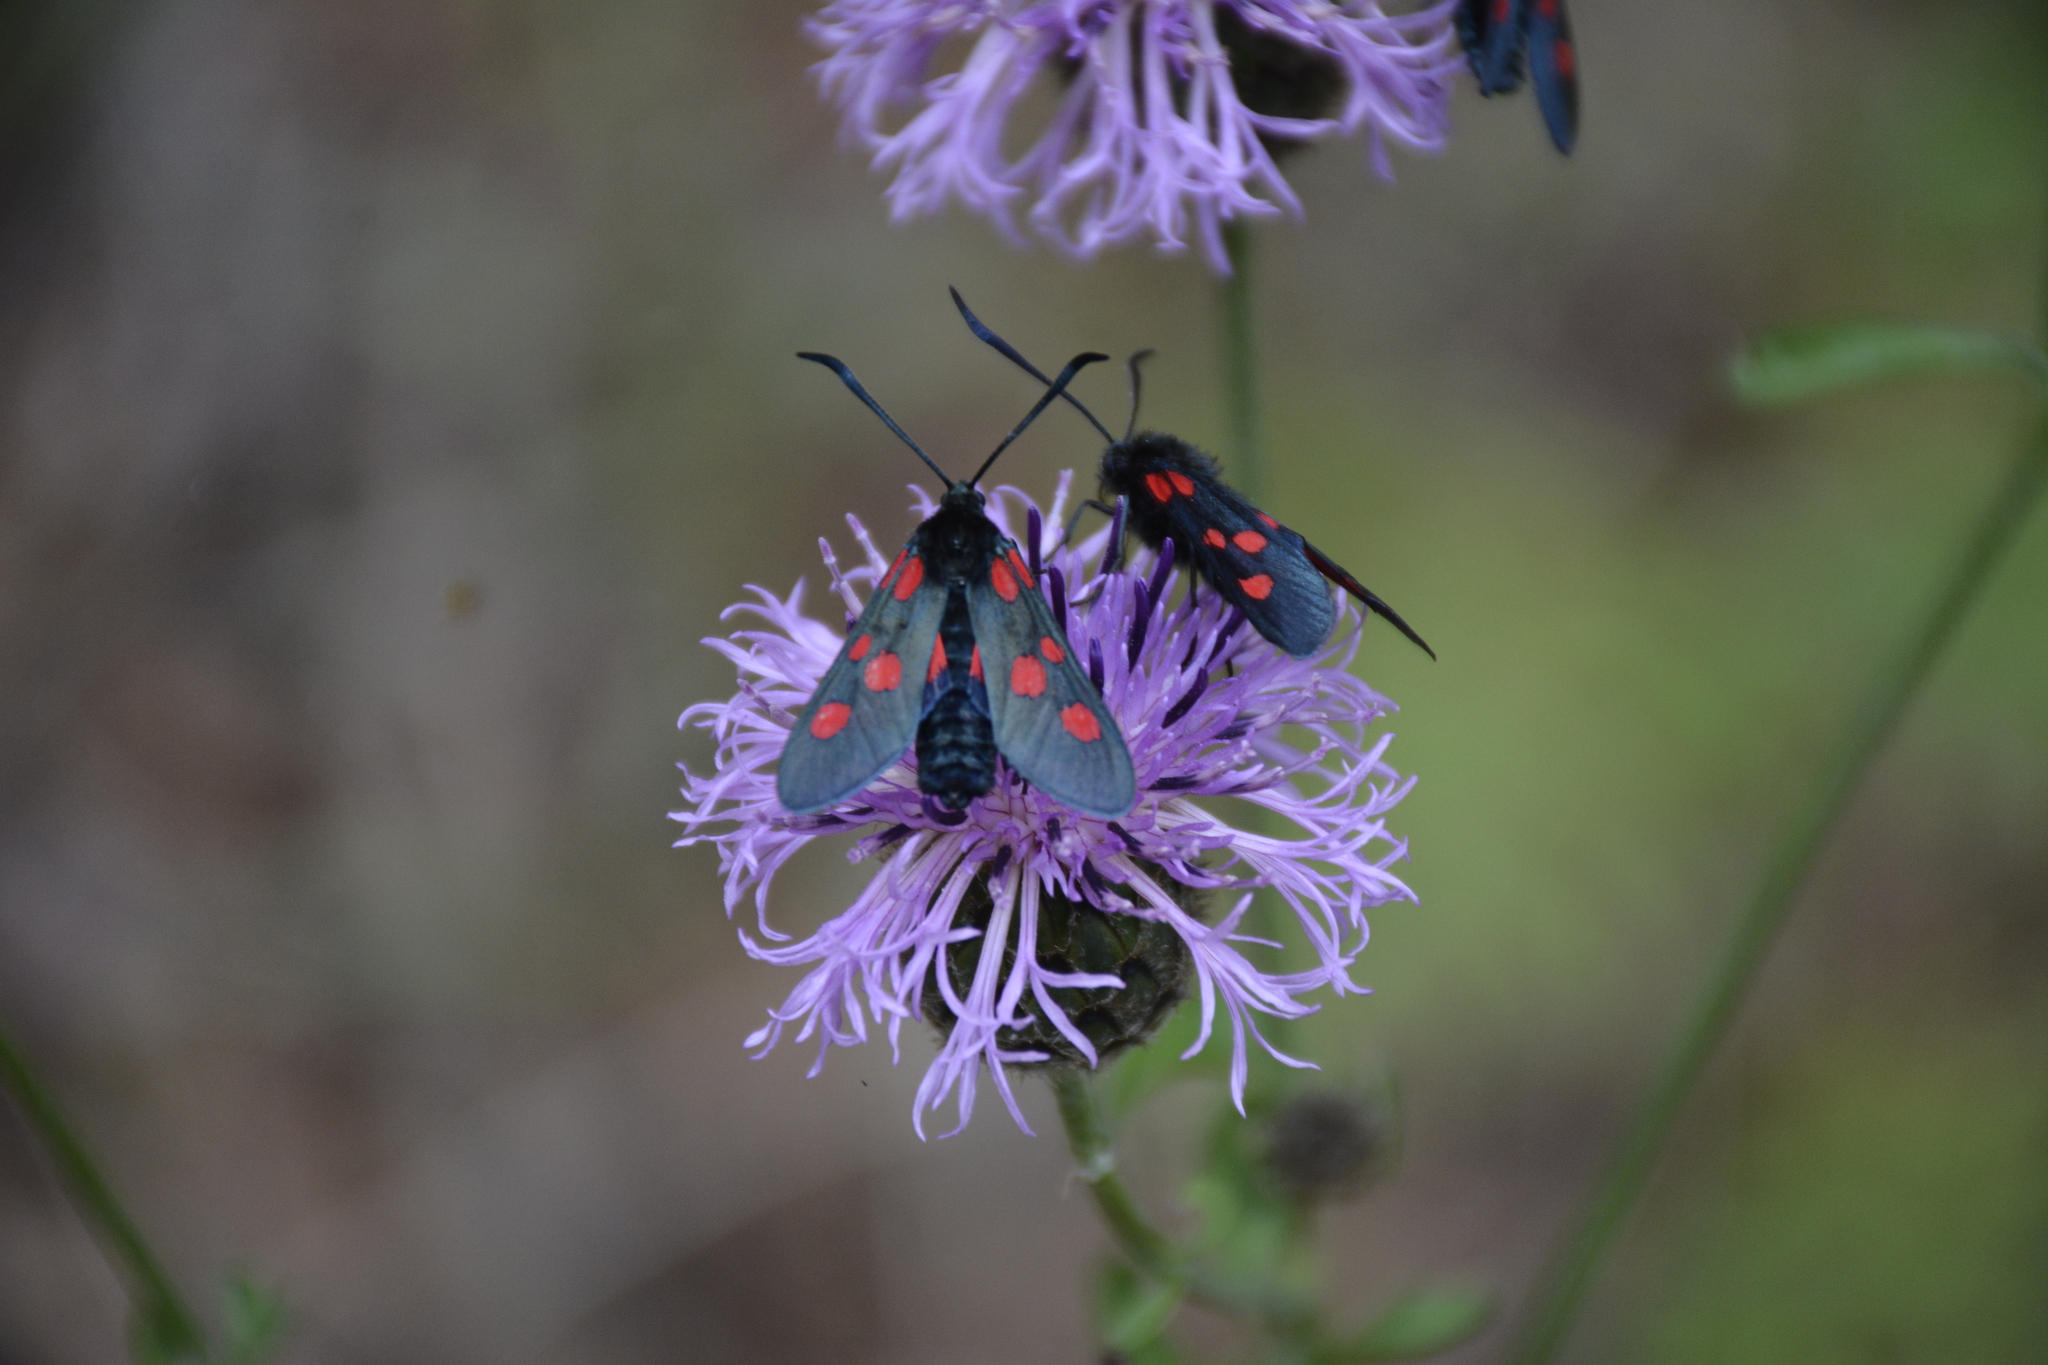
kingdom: Animalia
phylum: Arthropoda
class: Insecta
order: Lepidoptera
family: Zygaenidae
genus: Zygaena
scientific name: Zygaena lonicerae
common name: Narrow-bordered five-spot burnet
